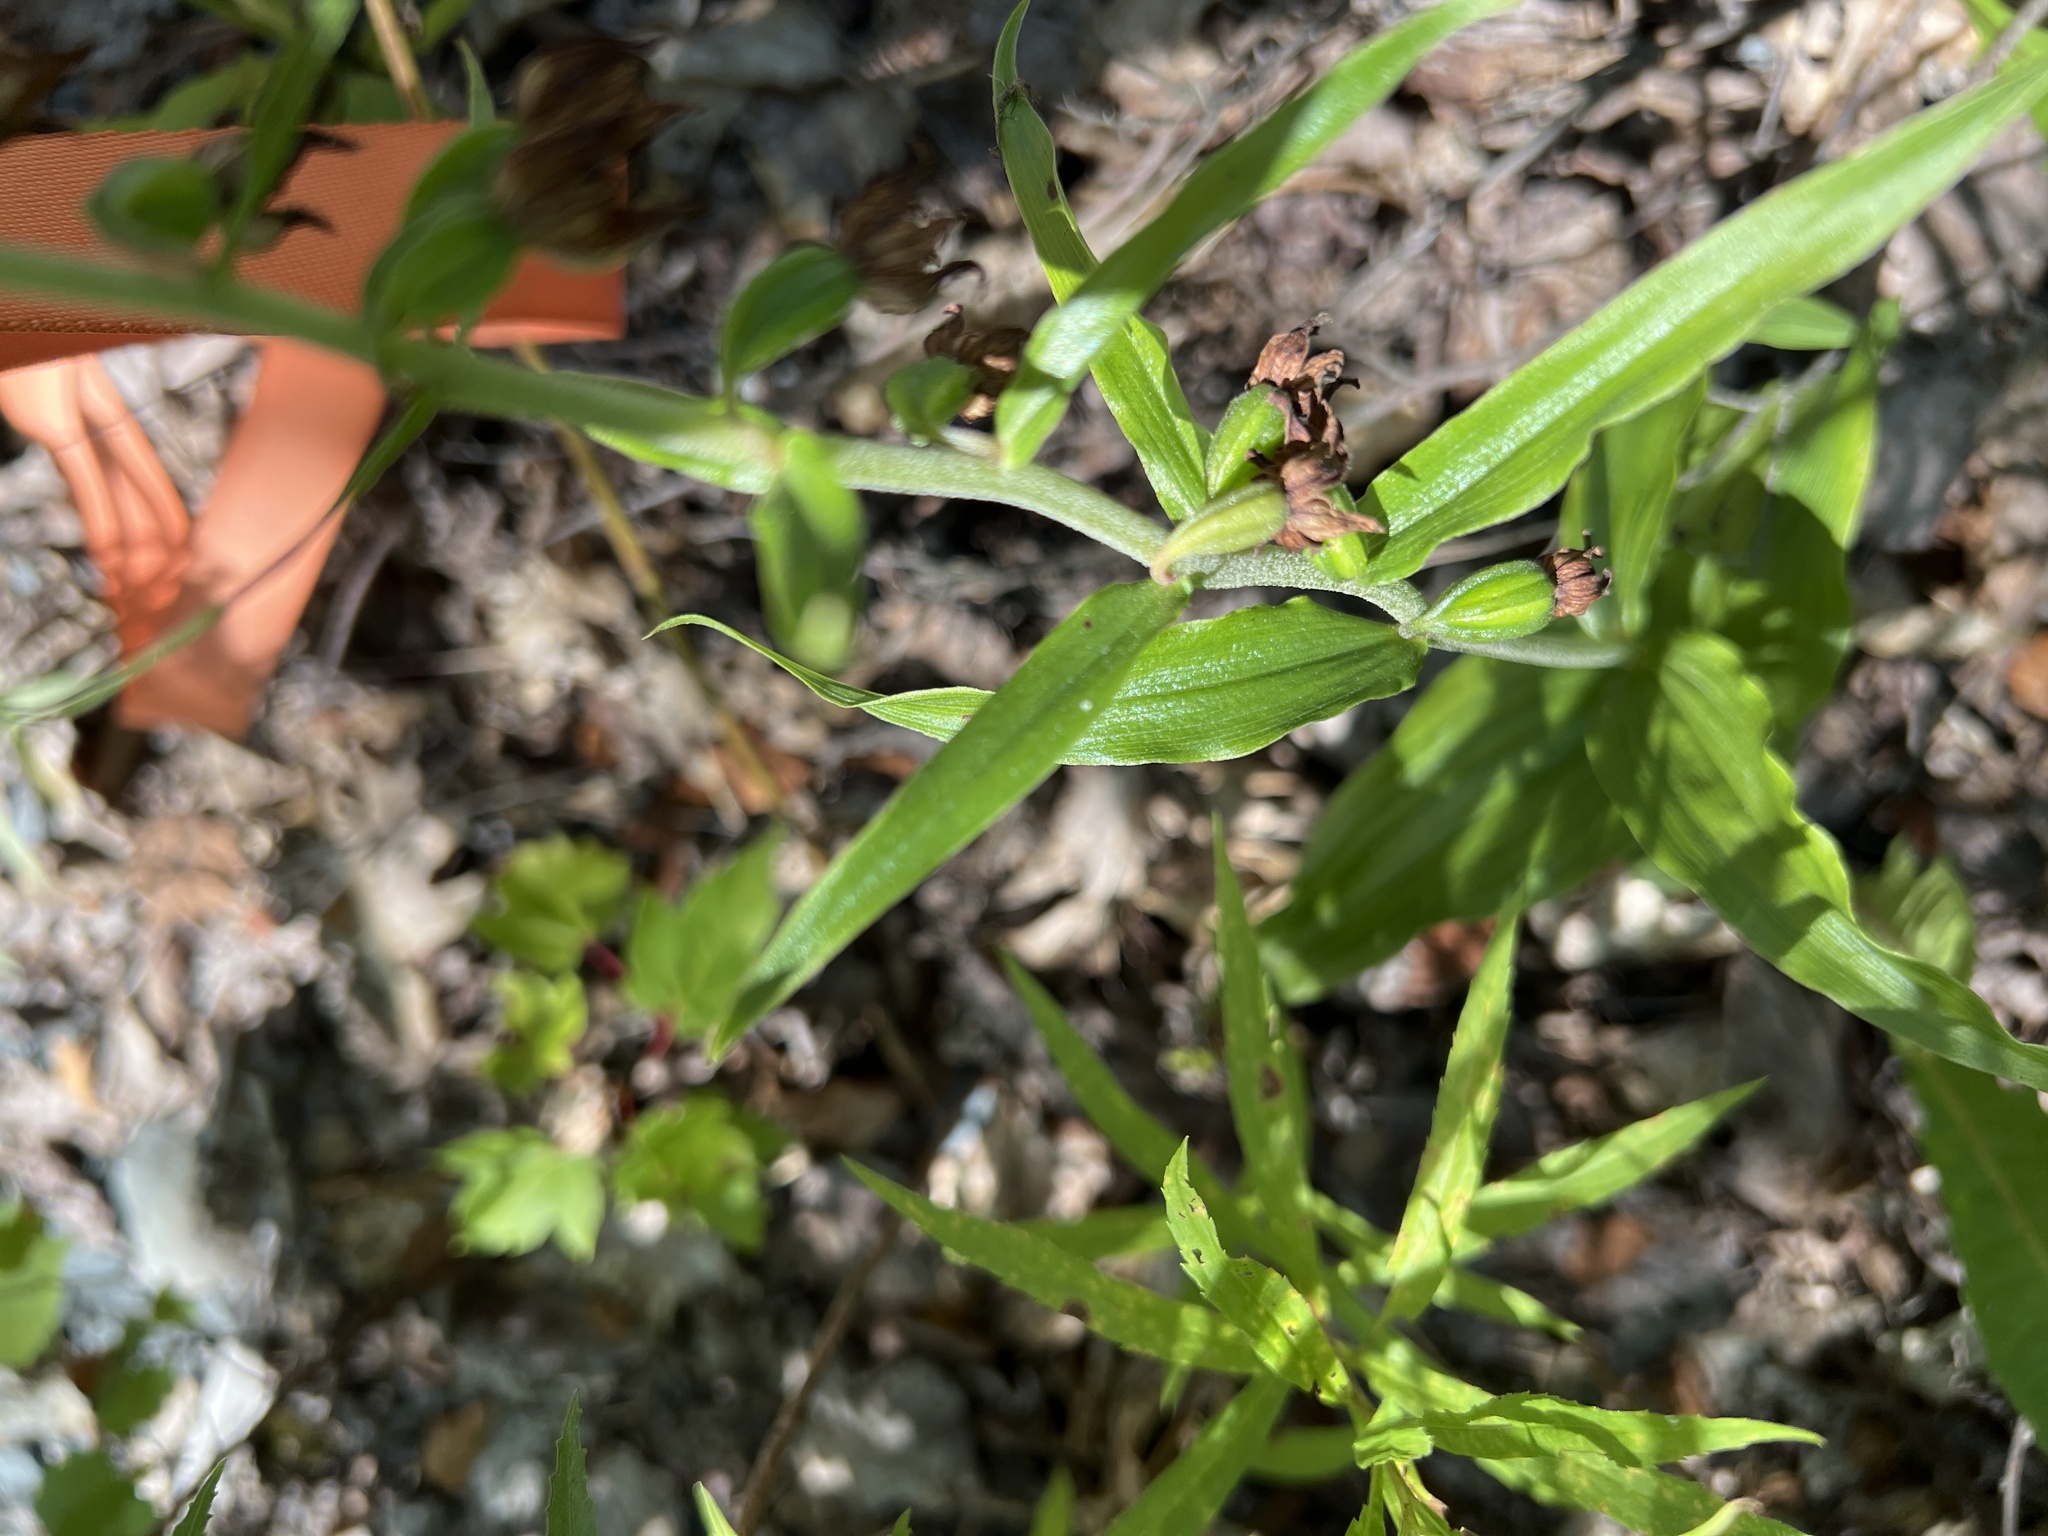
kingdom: Plantae
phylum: Tracheophyta
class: Liliopsida
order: Asparagales
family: Orchidaceae
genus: Epipactis
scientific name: Epipactis helleborine
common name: Broad-leaved helleborine
